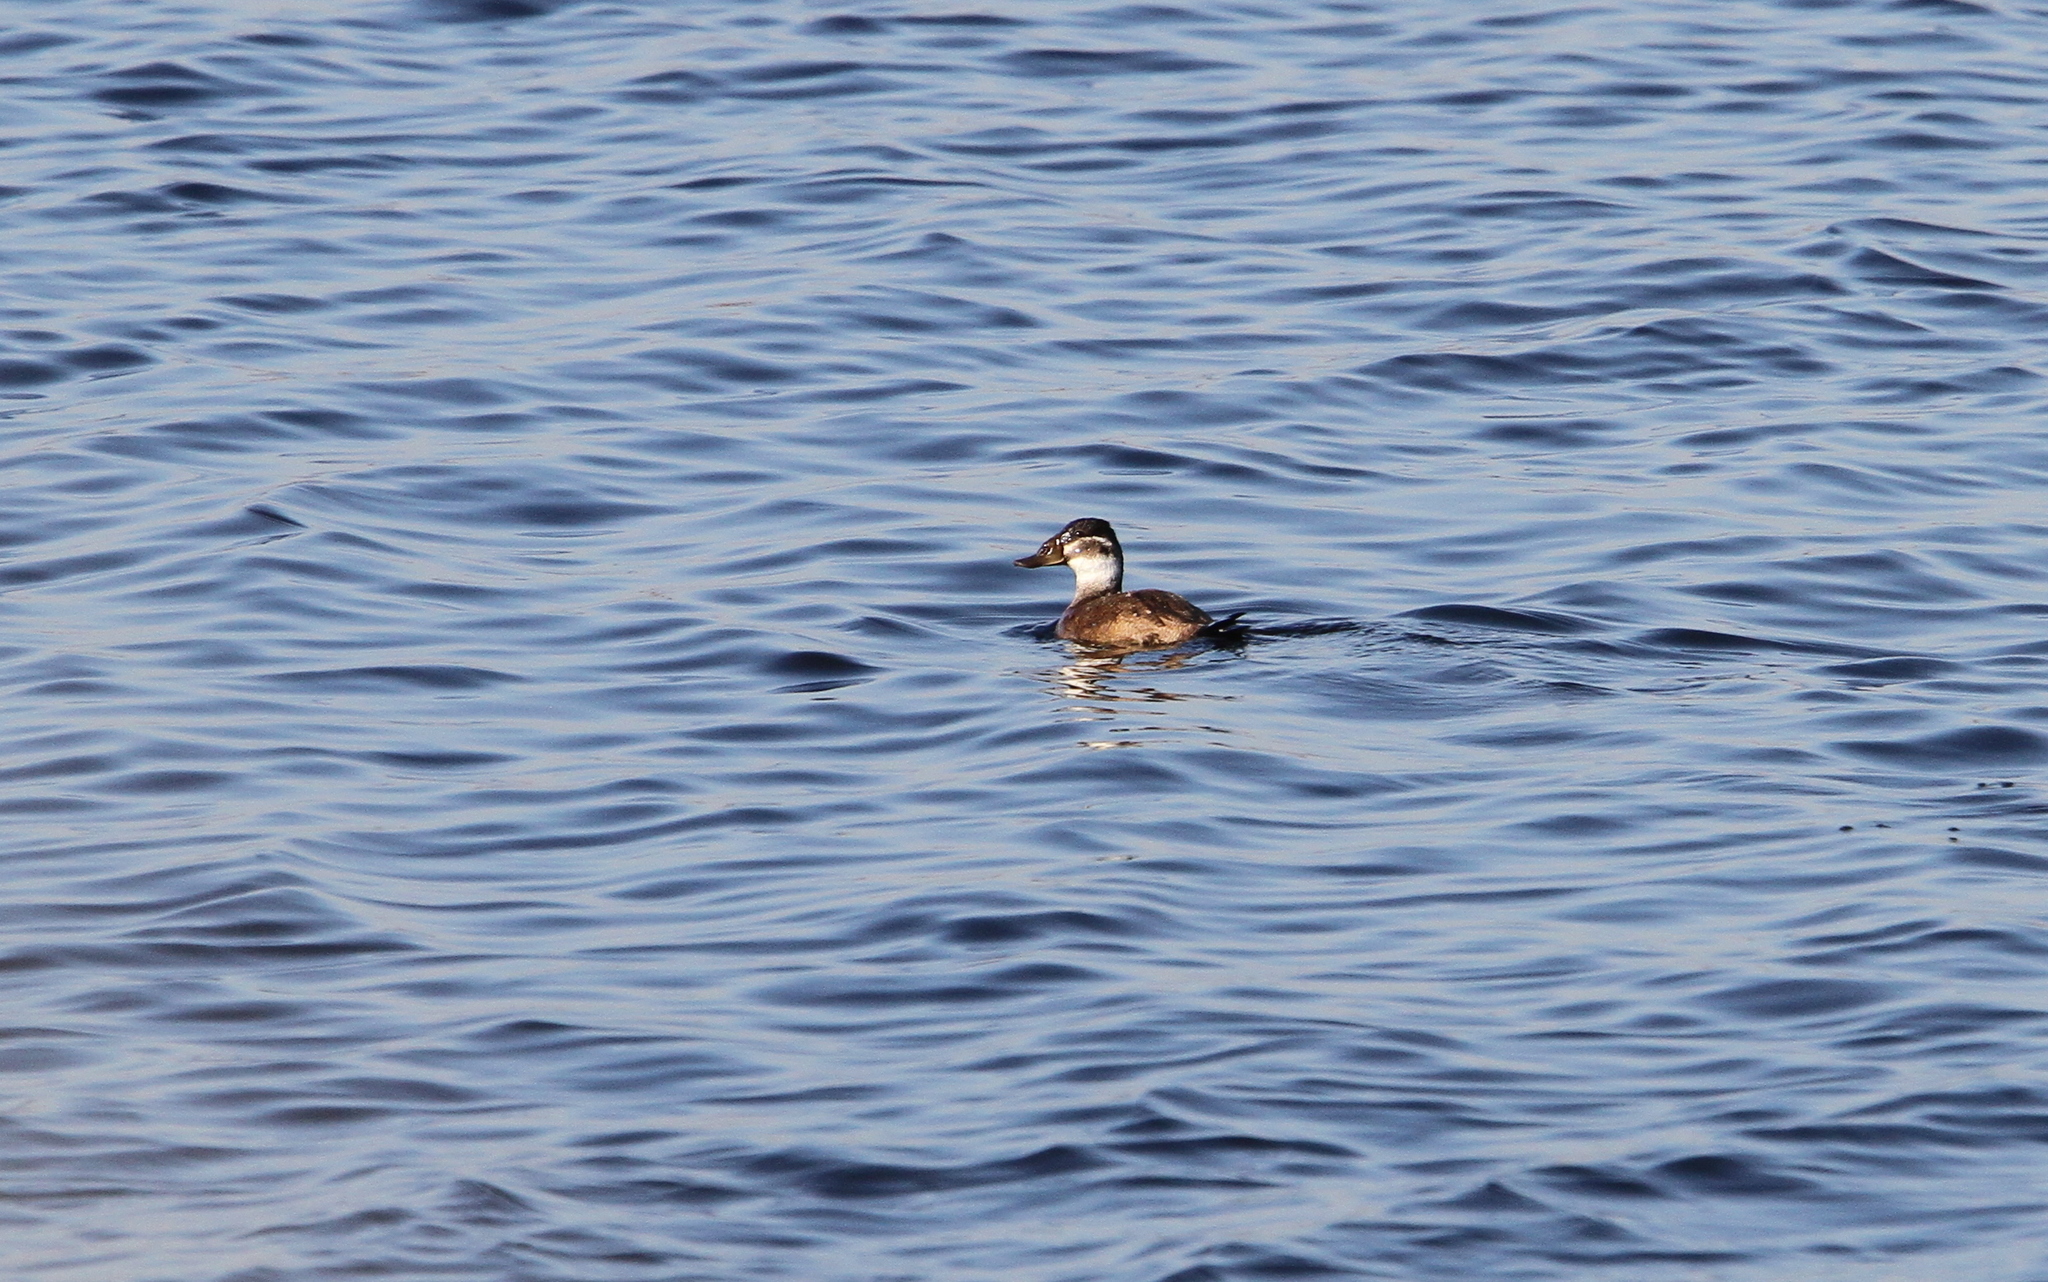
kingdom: Animalia
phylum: Chordata
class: Aves
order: Anseriformes
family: Anatidae
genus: Oxyura
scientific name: Oxyura leucocephala
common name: White-headed duck
